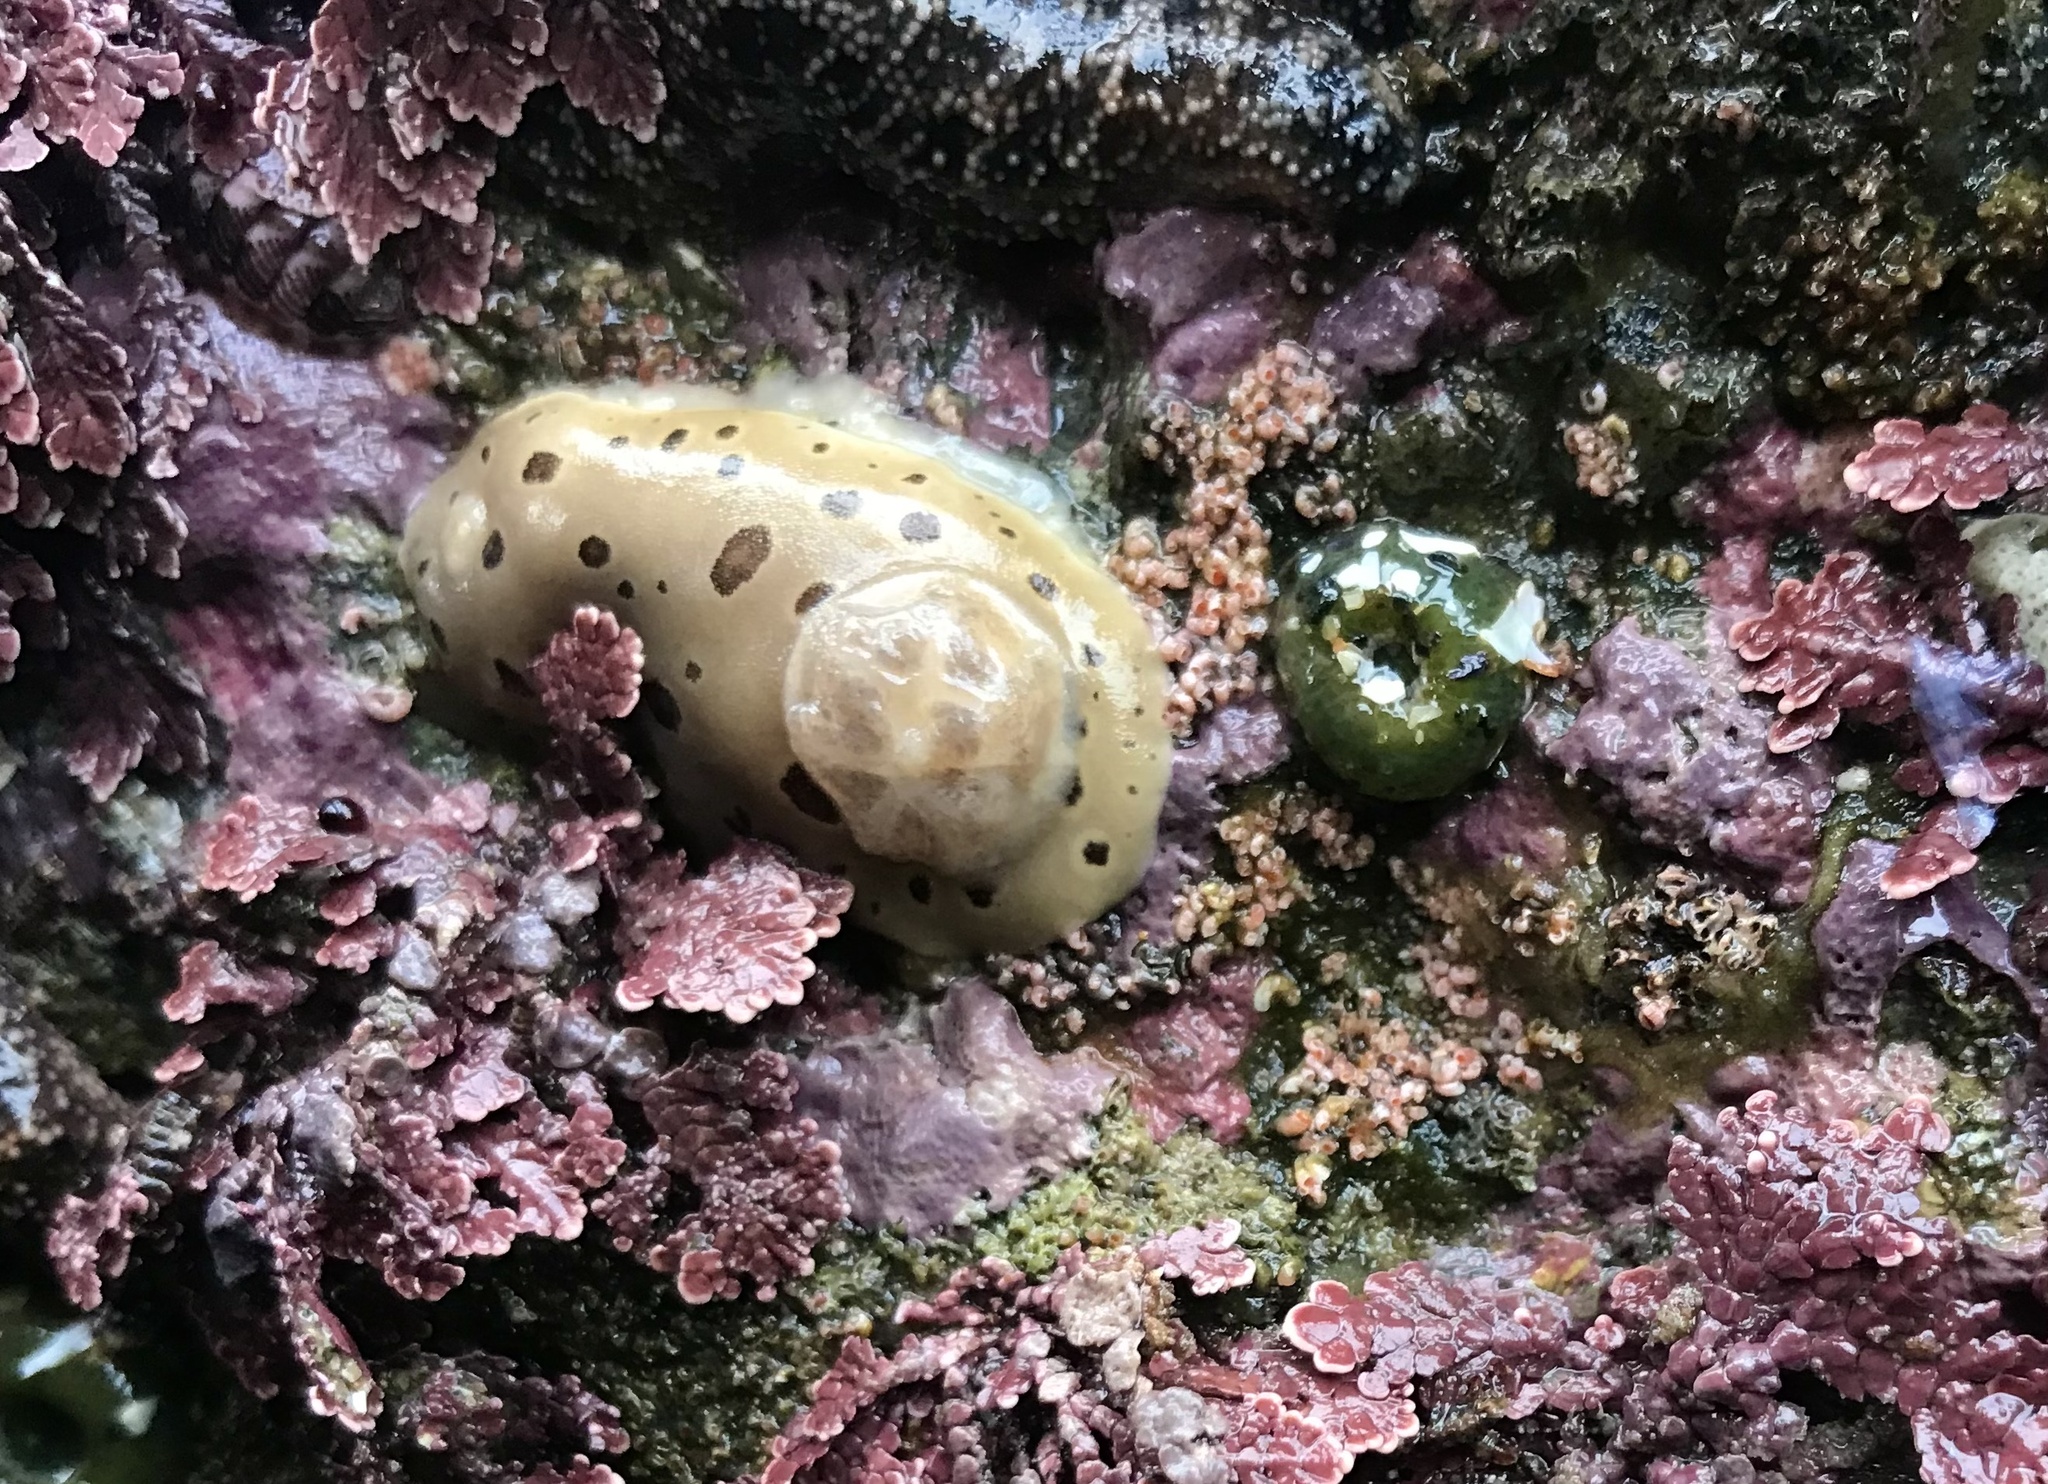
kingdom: Animalia
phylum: Mollusca
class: Gastropoda
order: Nudibranchia
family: Discodorididae
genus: Diaulula
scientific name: Diaulula odonoghuei
